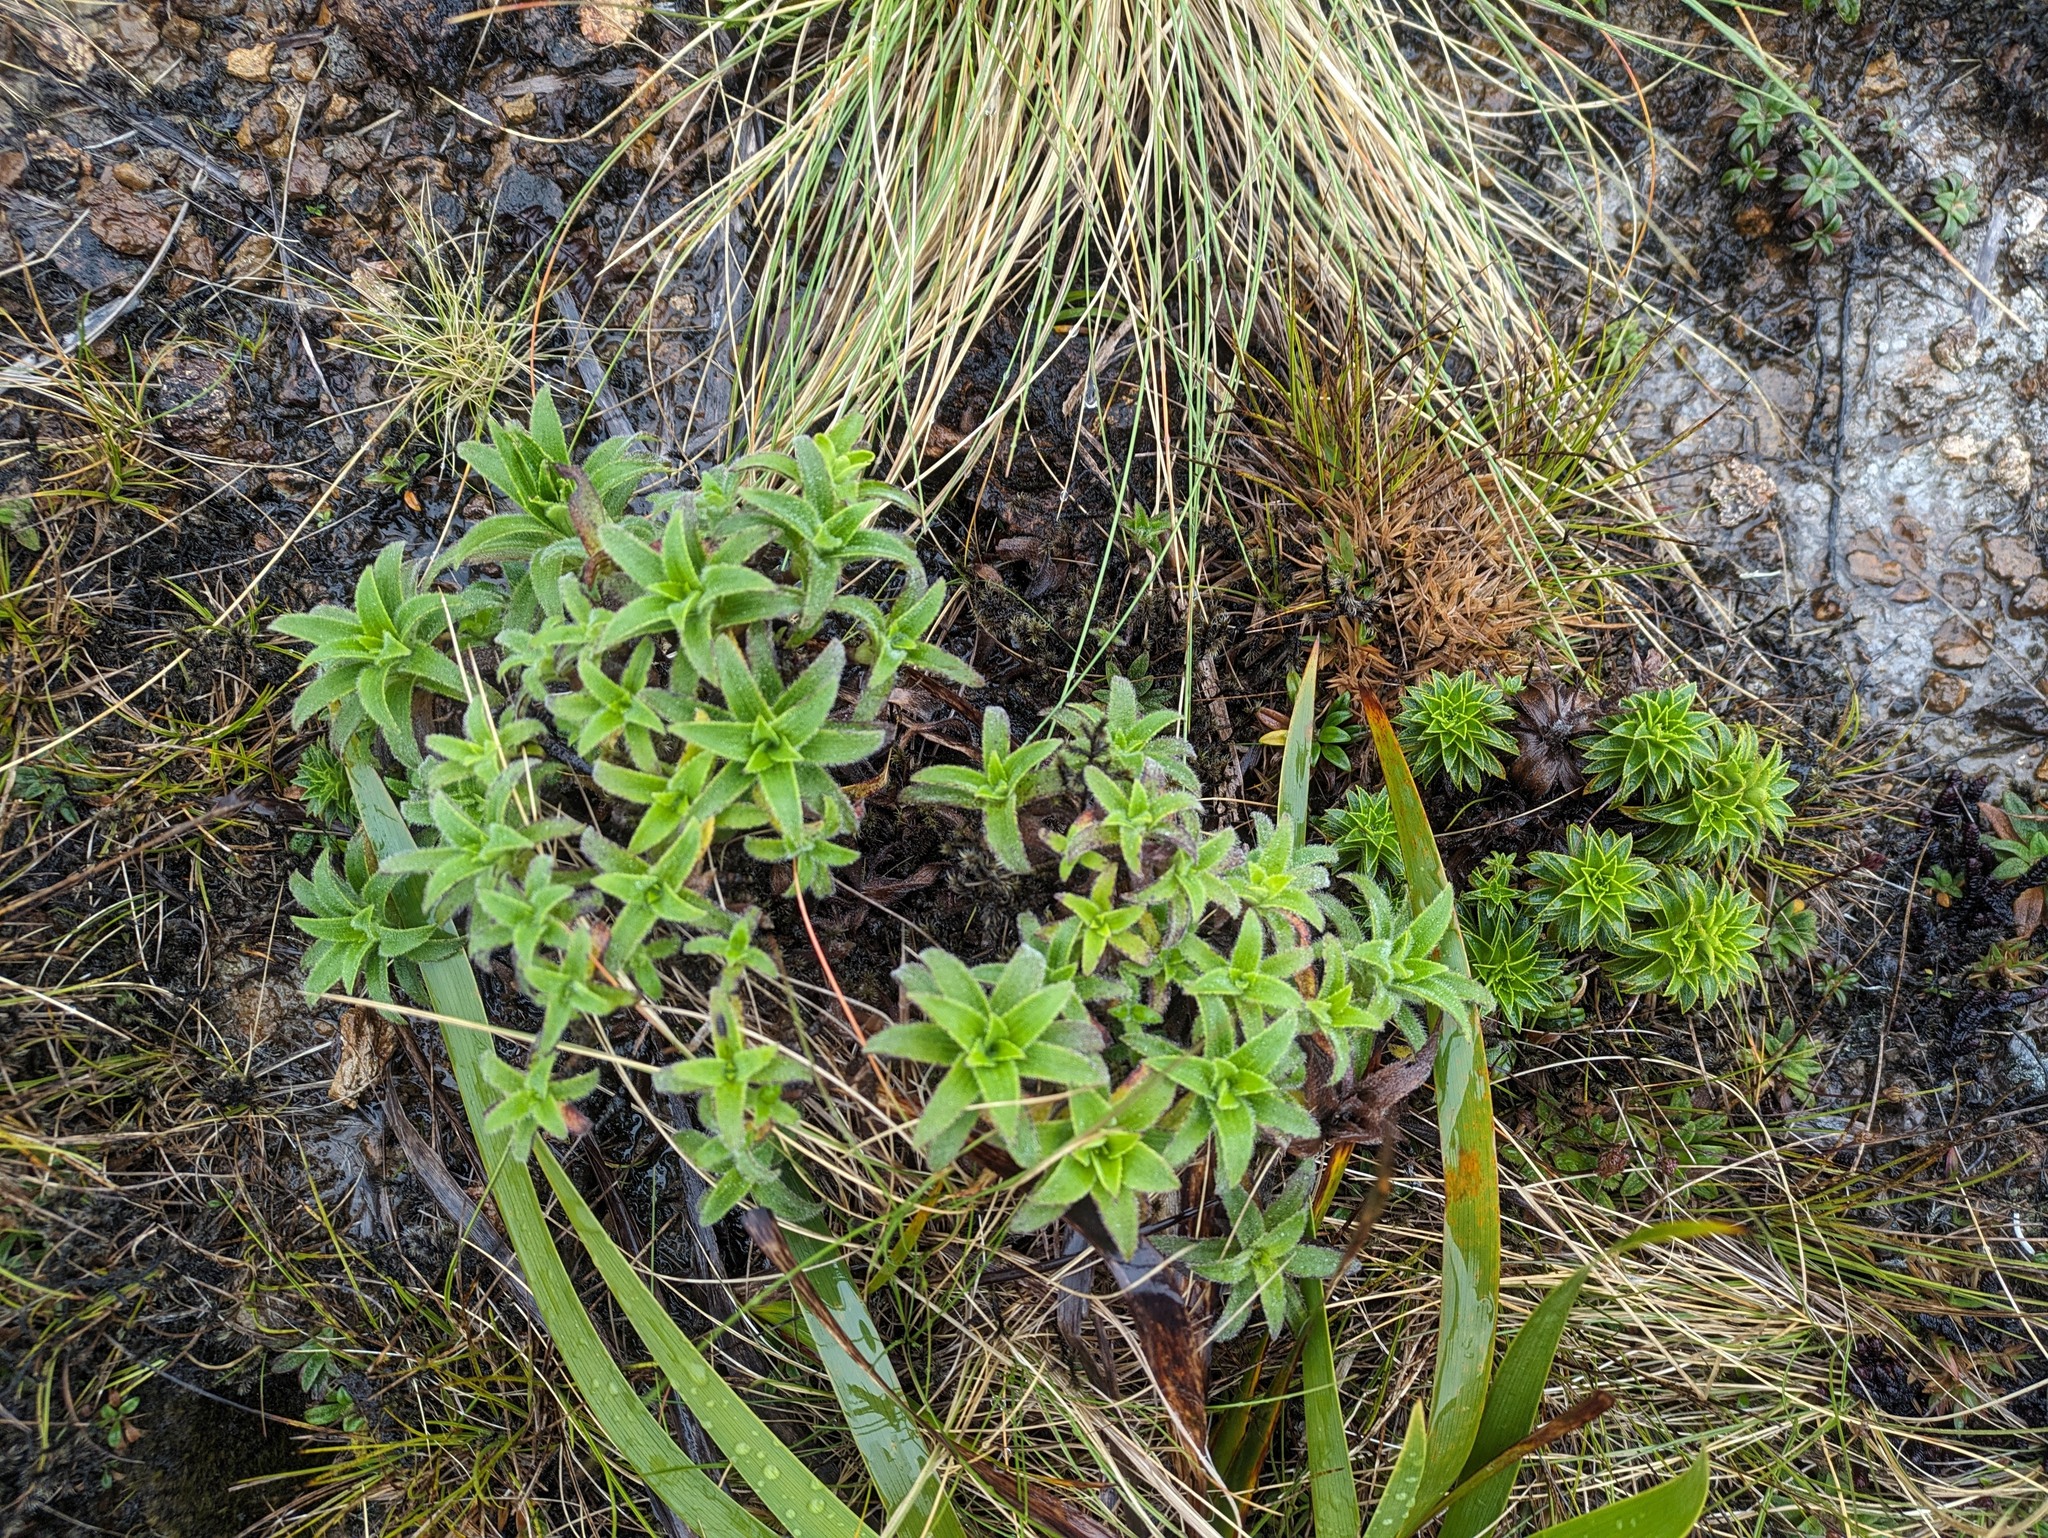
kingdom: Plantae
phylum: Tracheophyta
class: Magnoliopsida
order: Asterales
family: Asteraceae
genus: Dubautia
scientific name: Dubautia waialealae
